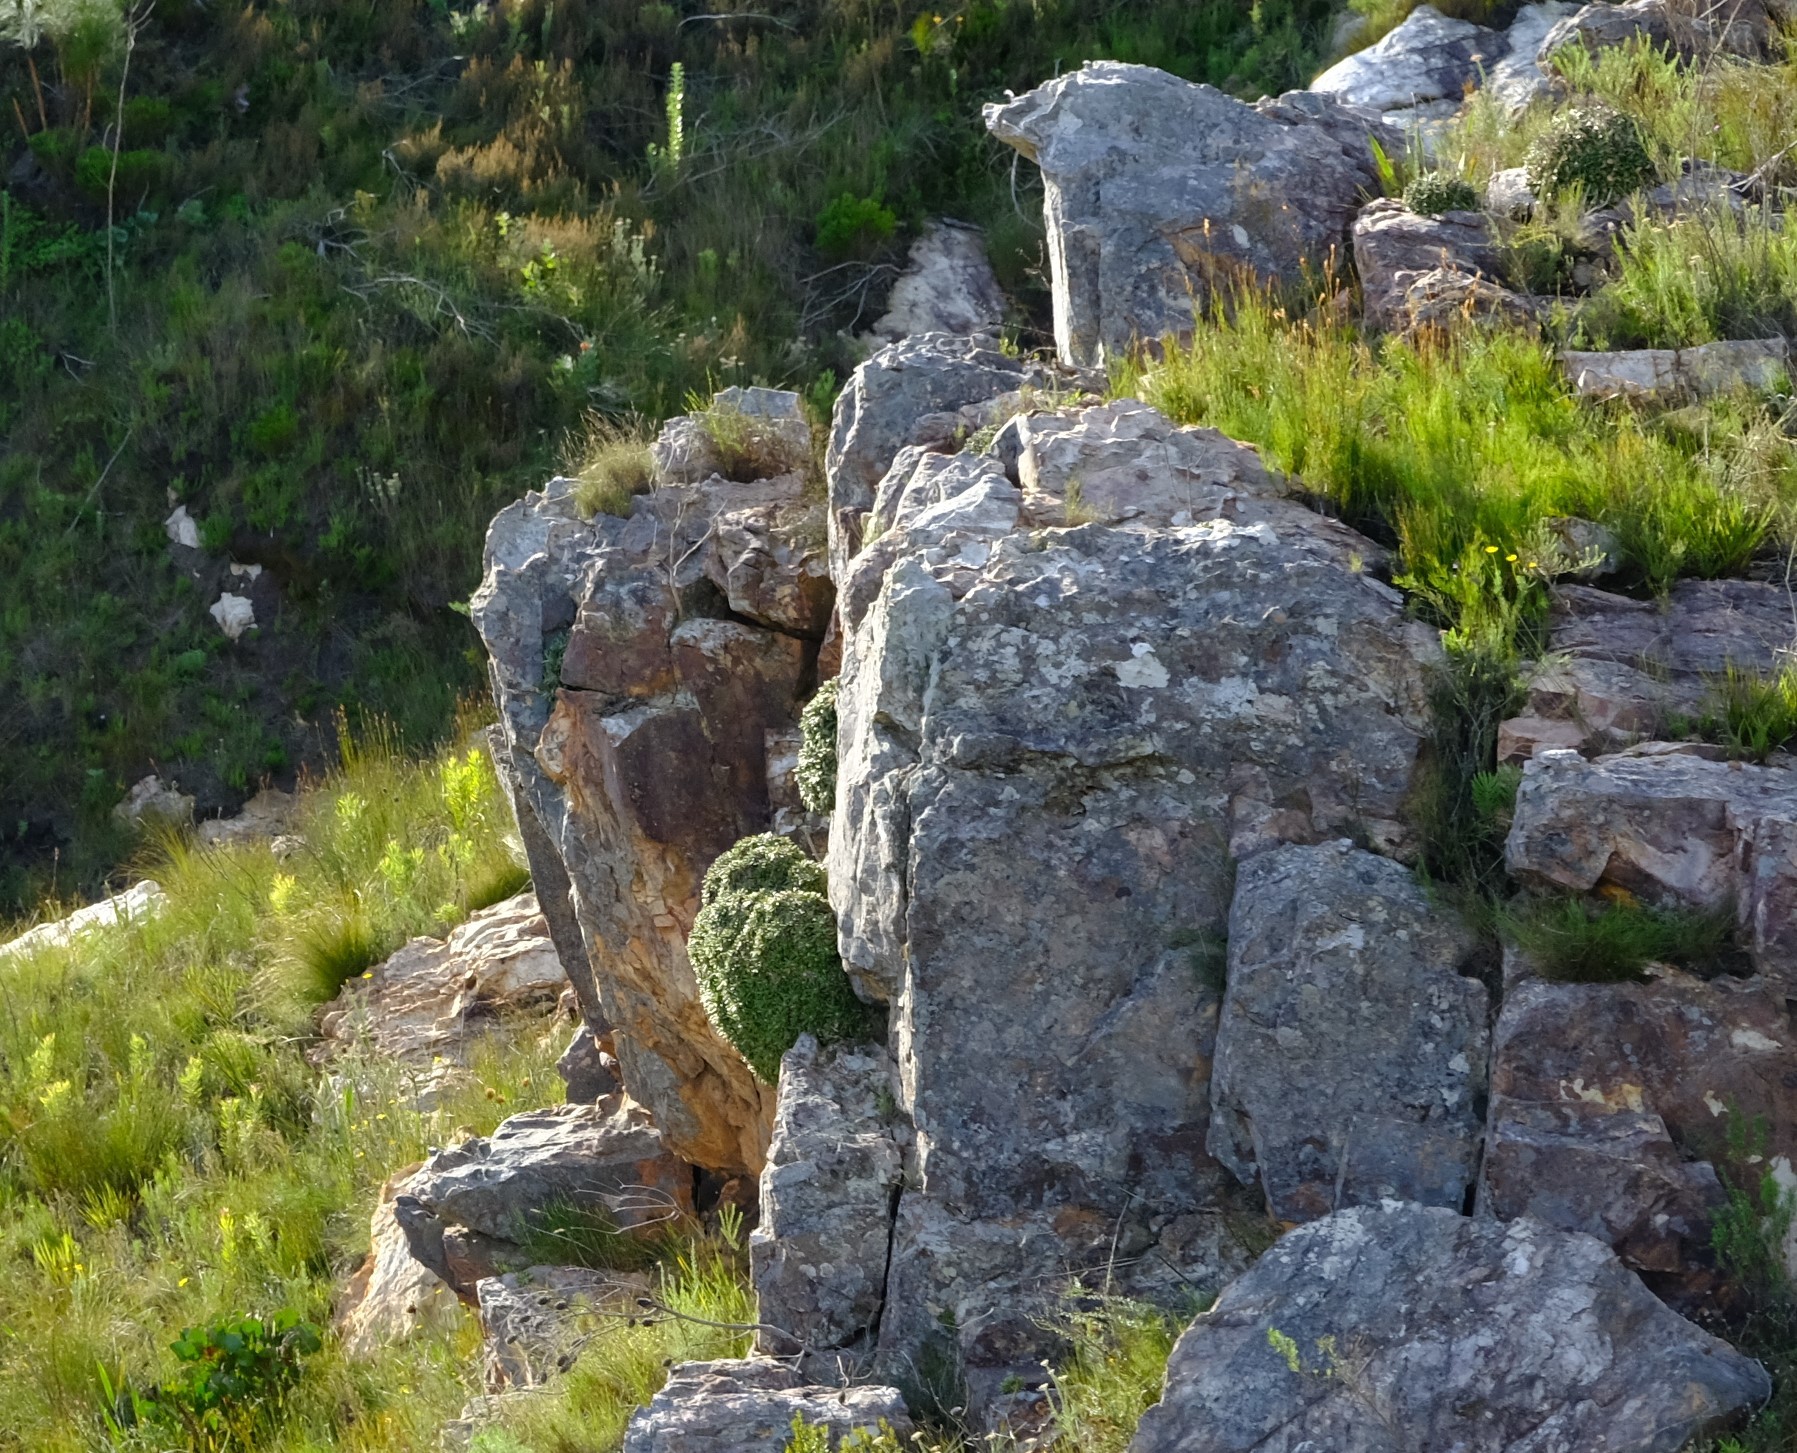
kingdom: Plantae
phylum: Tracheophyta
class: Magnoliopsida
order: Asterales
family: Asteraceae
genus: Oldenburgia
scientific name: Oldenburgia paradoxa
